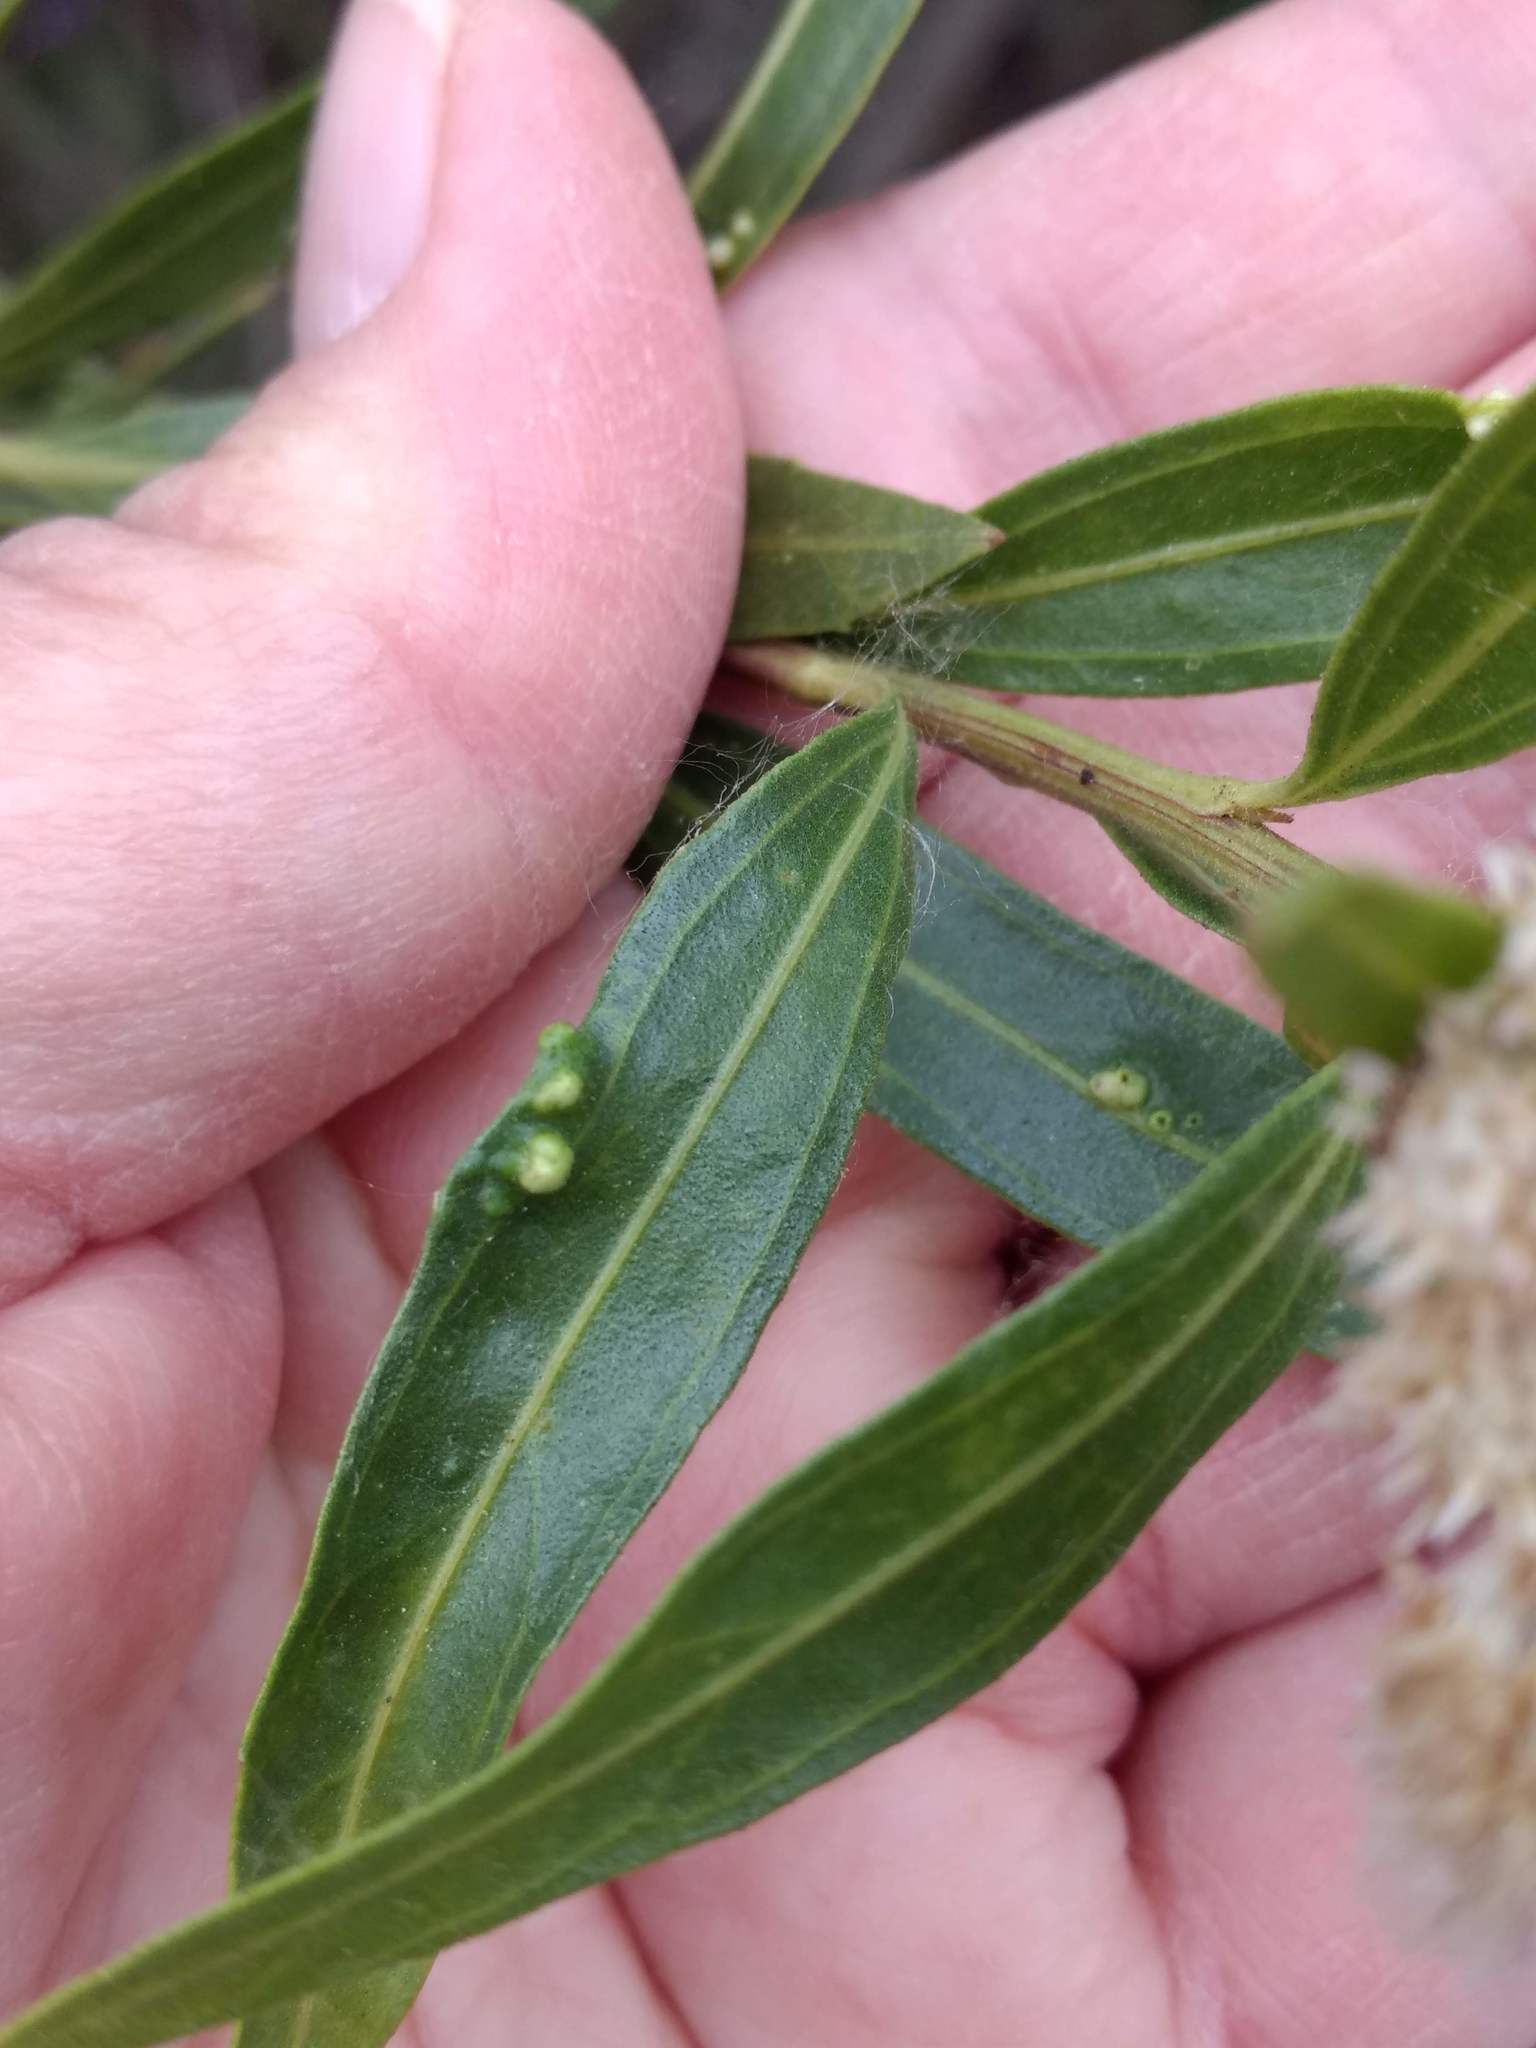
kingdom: Plantae
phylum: Tracheophyta
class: Magnoliopsida
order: Asterales
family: Asteraceae
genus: Baccharis
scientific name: Baccharis salicifolia
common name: Sticky baccharis
